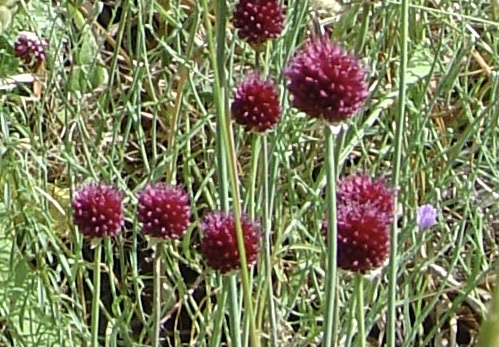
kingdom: Plantae
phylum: Tracheophyta
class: Liliopsida
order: Asparagales
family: Amaryllidaceae
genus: Allium
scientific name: Allium sphaerocephalon
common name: Round-headed leek
